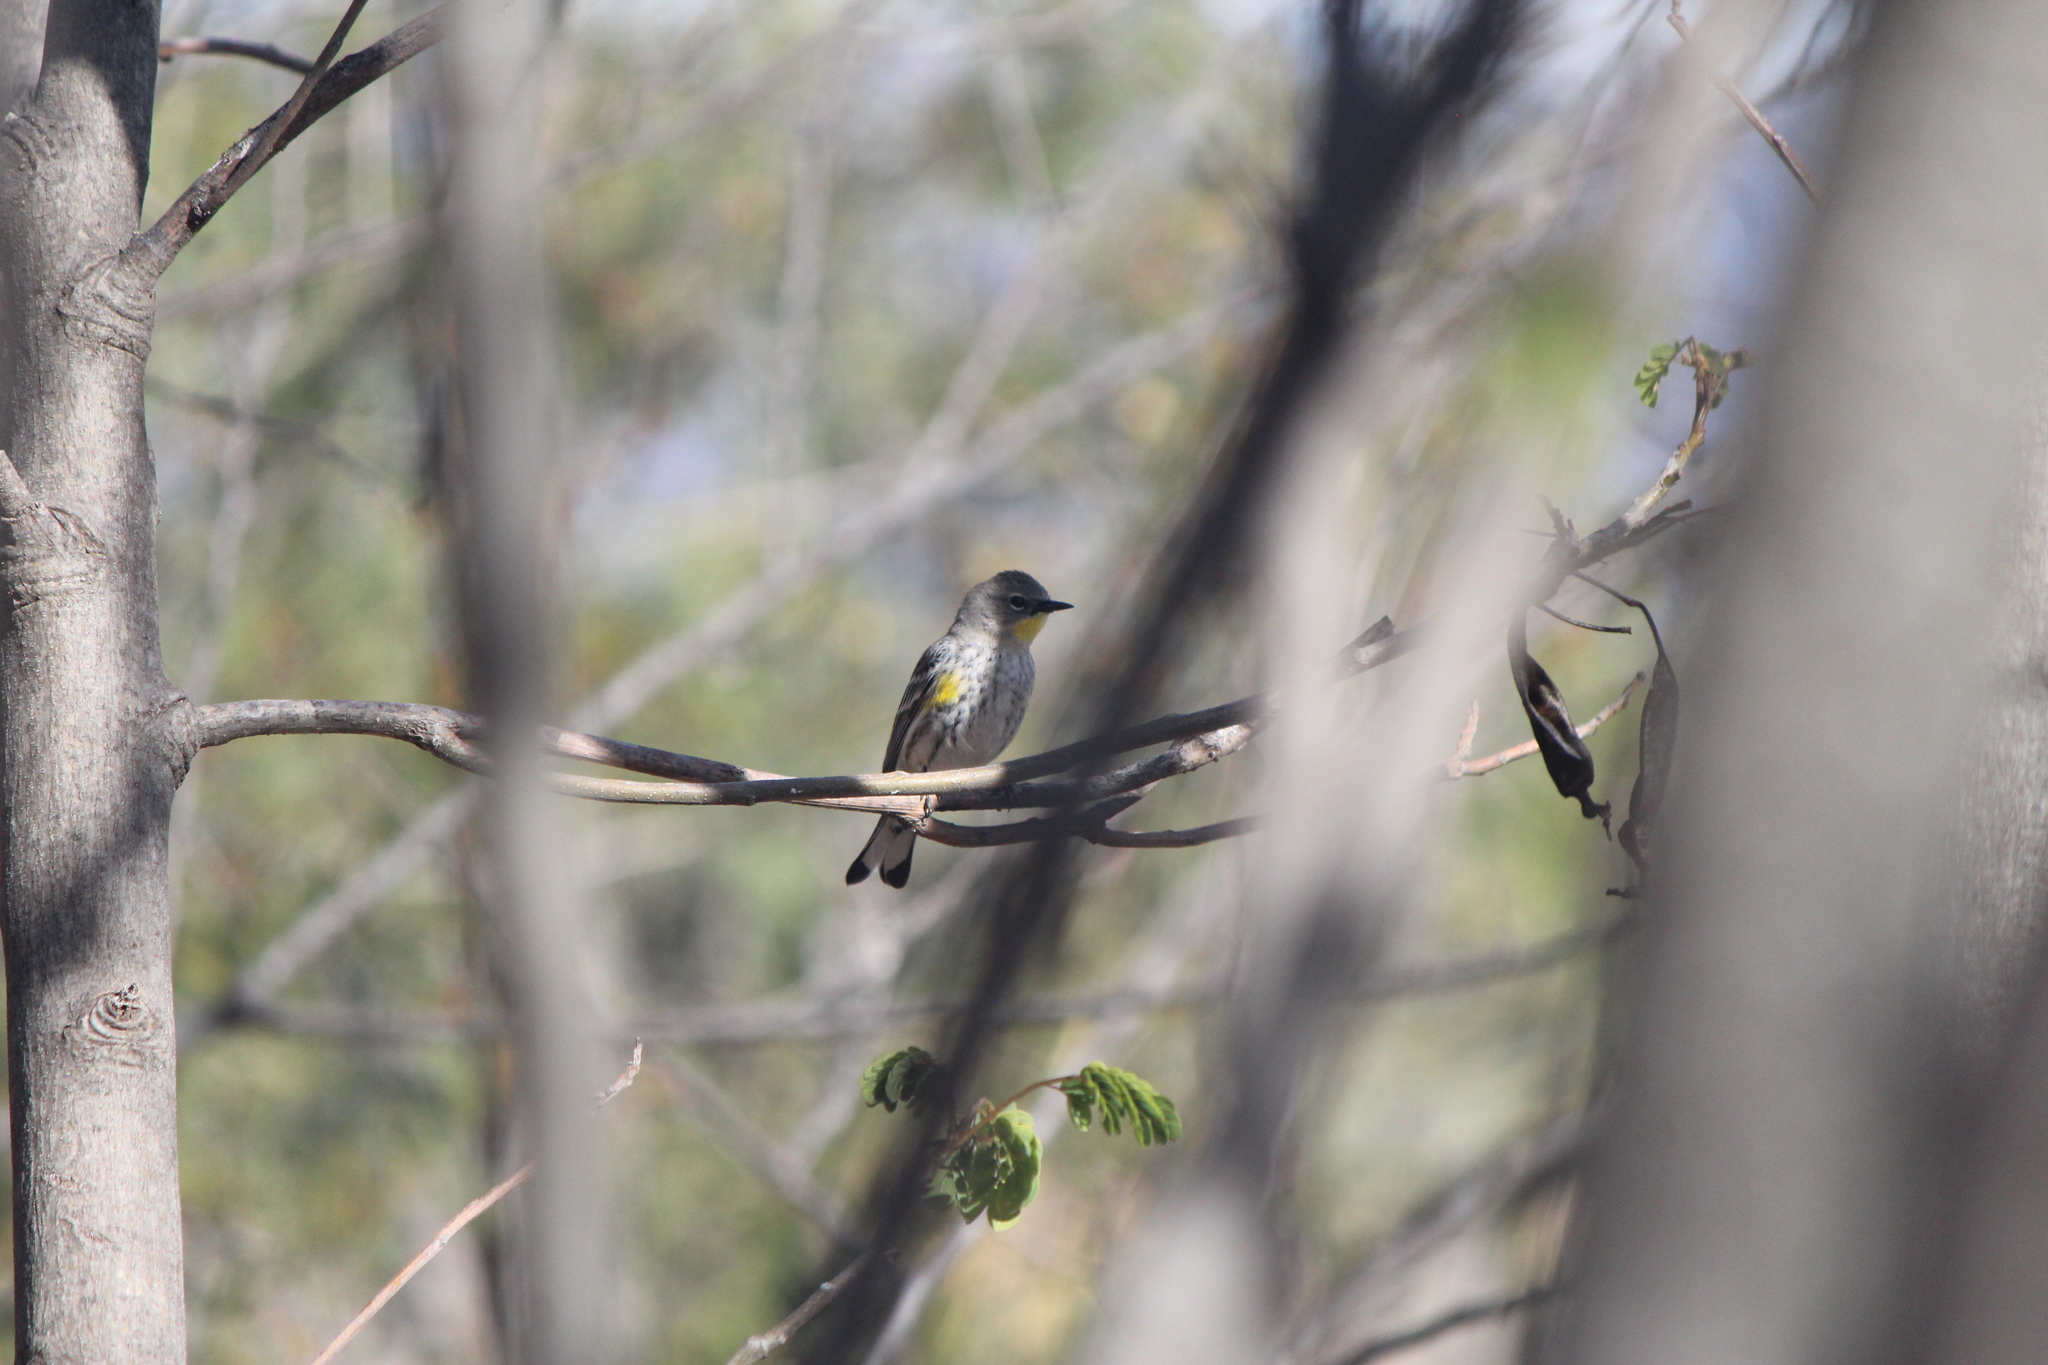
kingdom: Animalia
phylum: Chordata
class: Aves
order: Passeriformes
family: Parulidae
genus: Setophaga
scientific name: Setophaga auduboni
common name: Audubon's warbler
